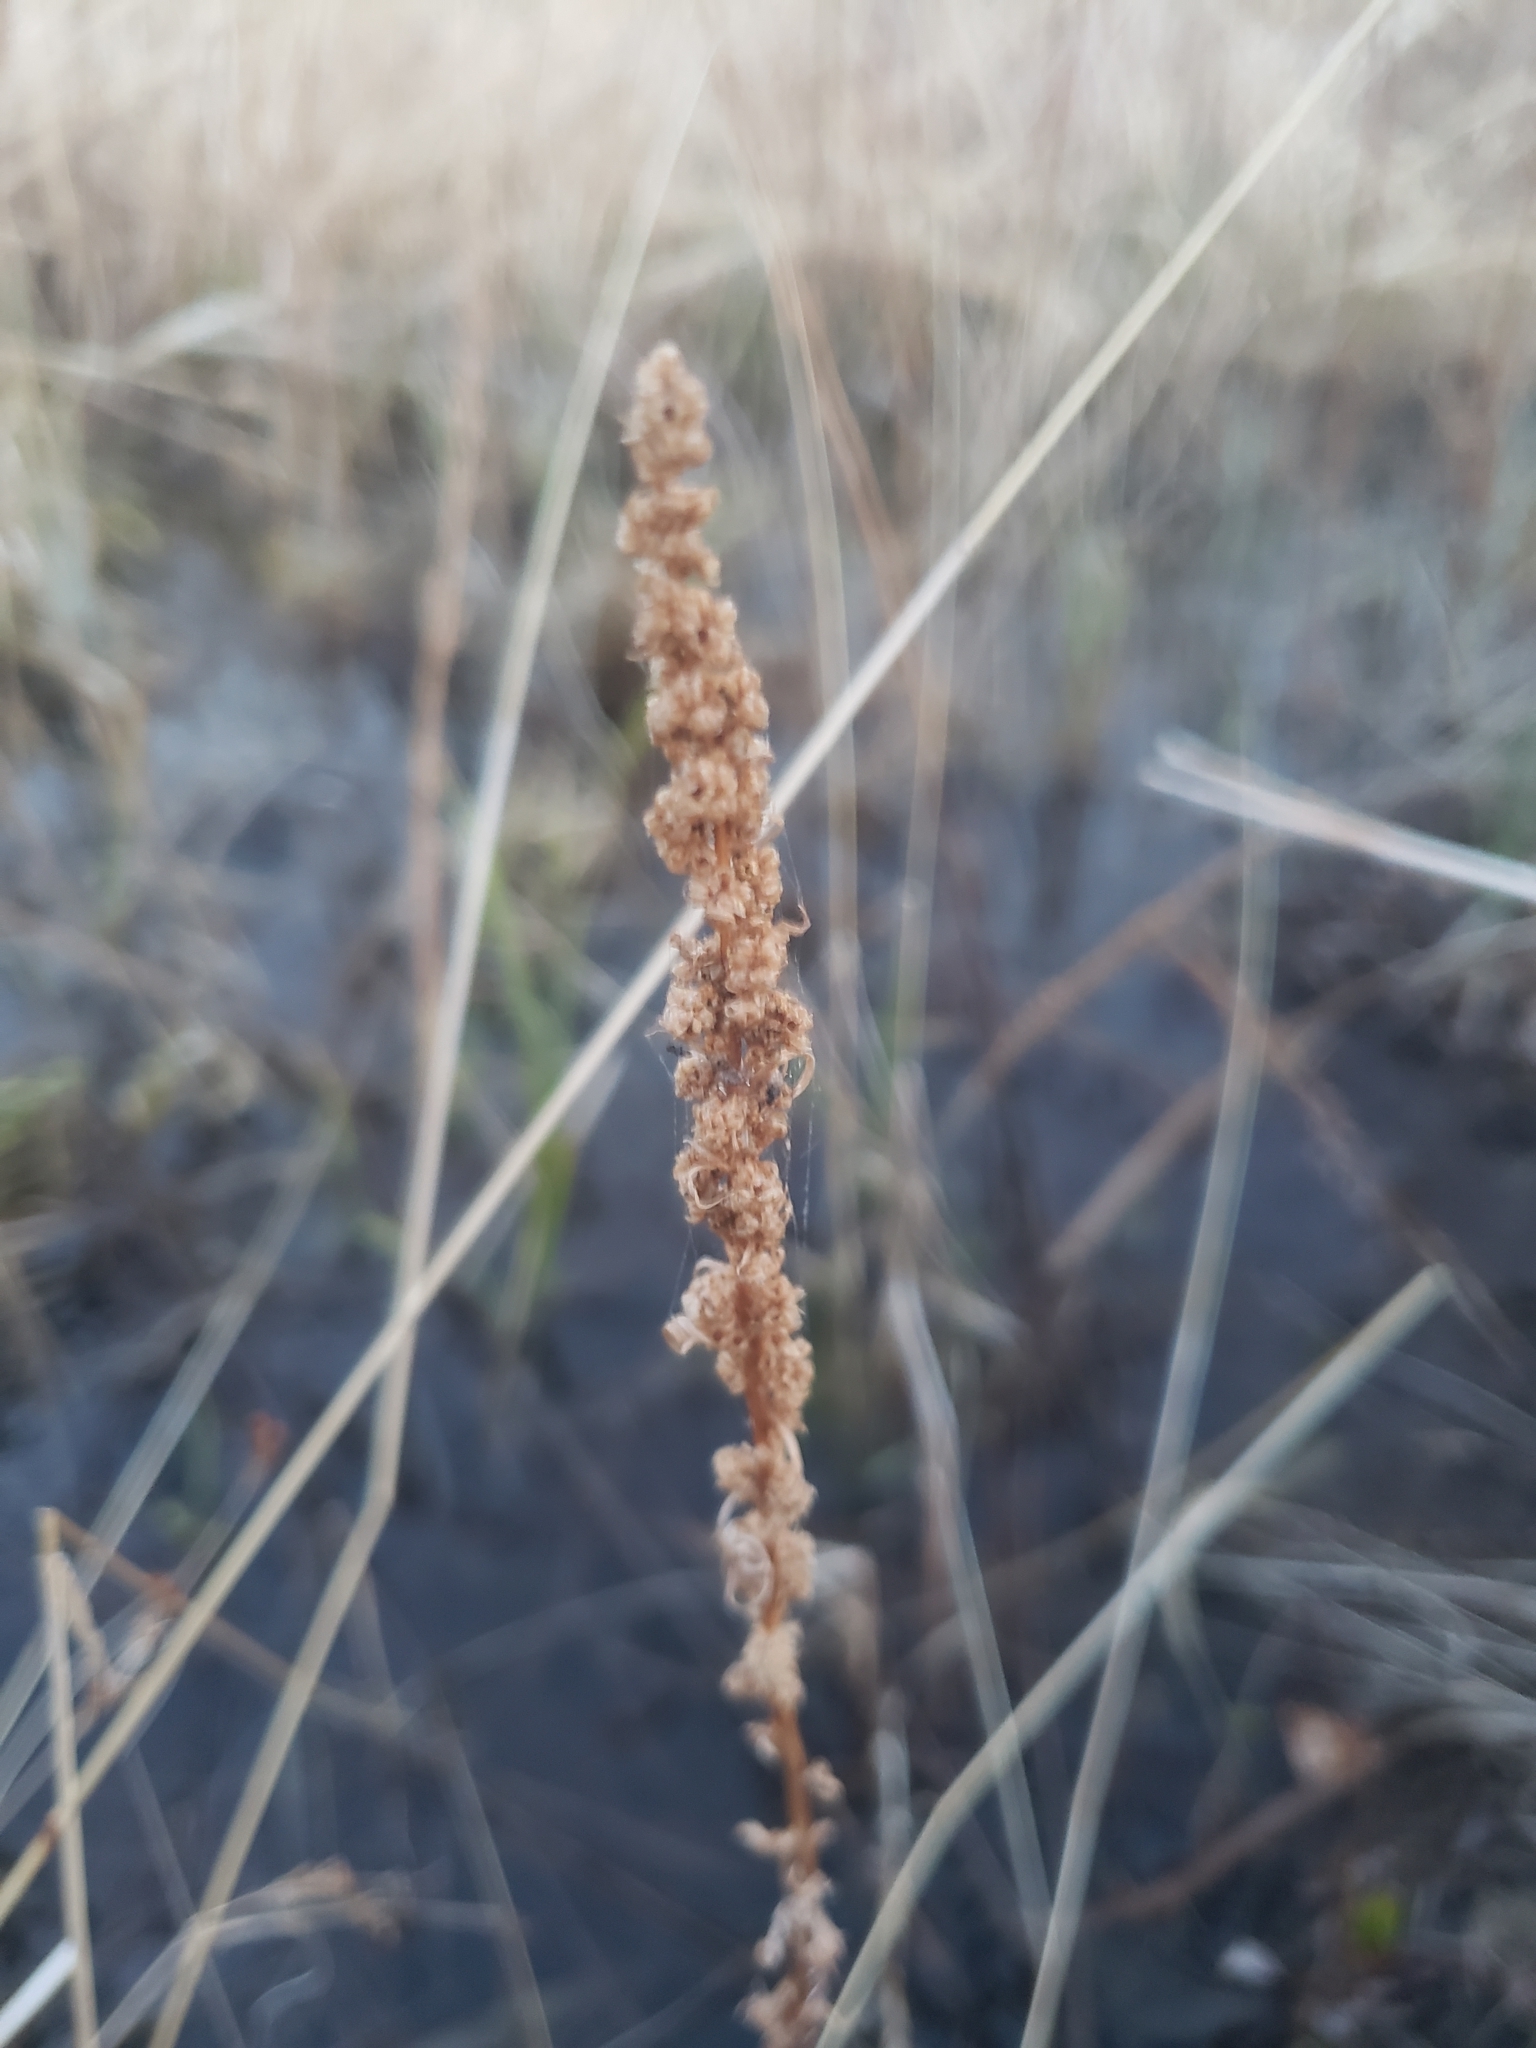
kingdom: Plantae
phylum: Tracheophyta
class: Liliopsida
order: Alismatales
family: Juncaginaceae
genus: Triglochin
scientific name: Triglochin maritima
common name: Sea arrowgrass
